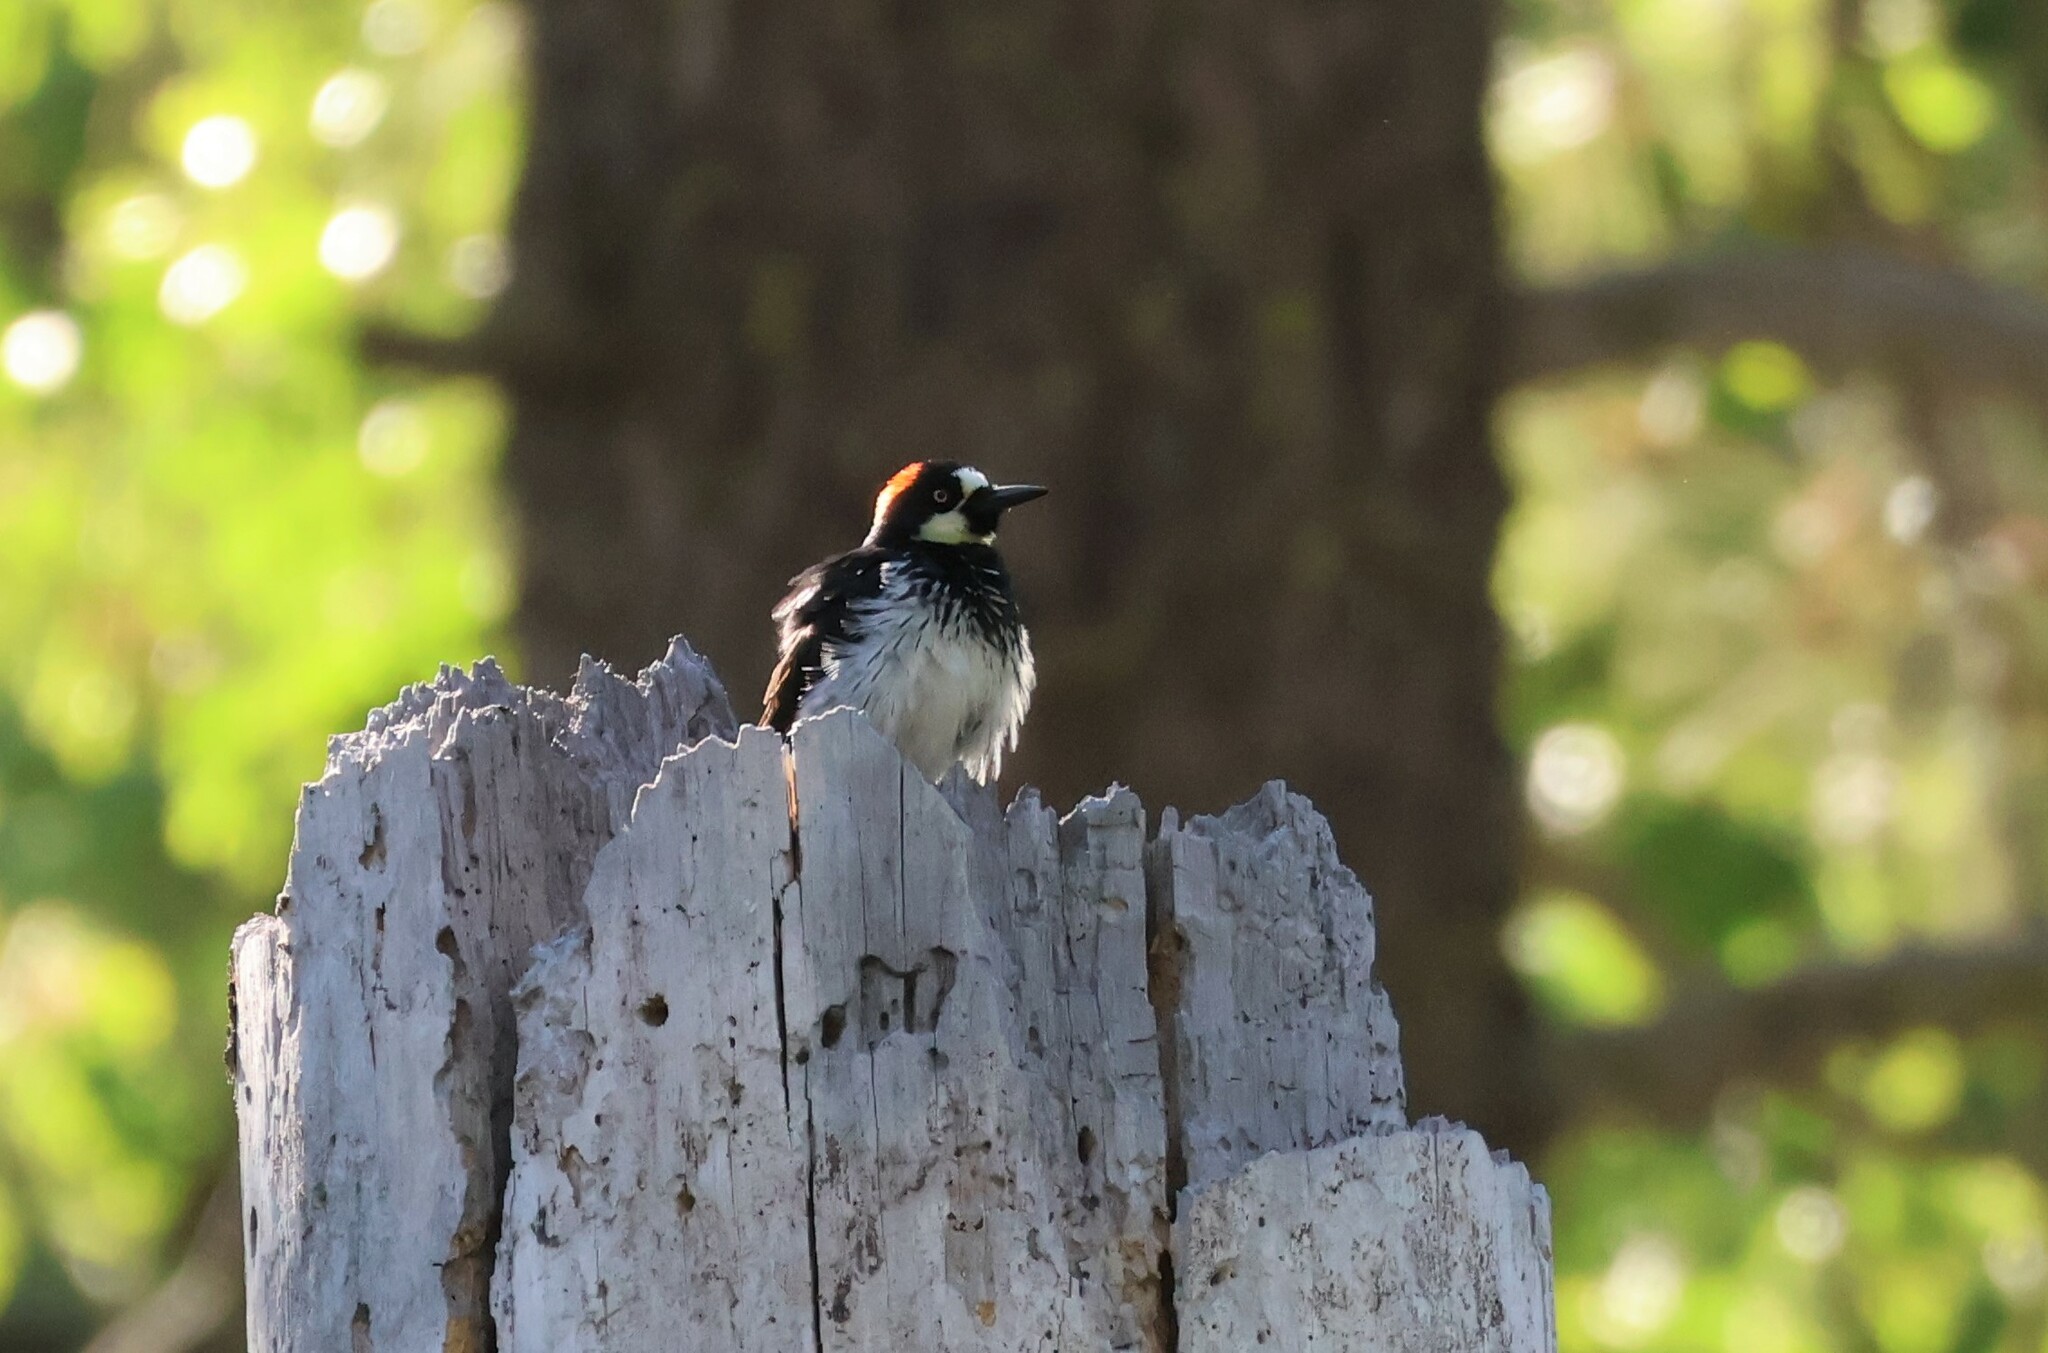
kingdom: Animalia
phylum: Chordata
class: Aves
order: Piciformes
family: Picidae
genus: Melanerpes
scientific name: Melanerpes formicivorus
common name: Acorn woodpecker
